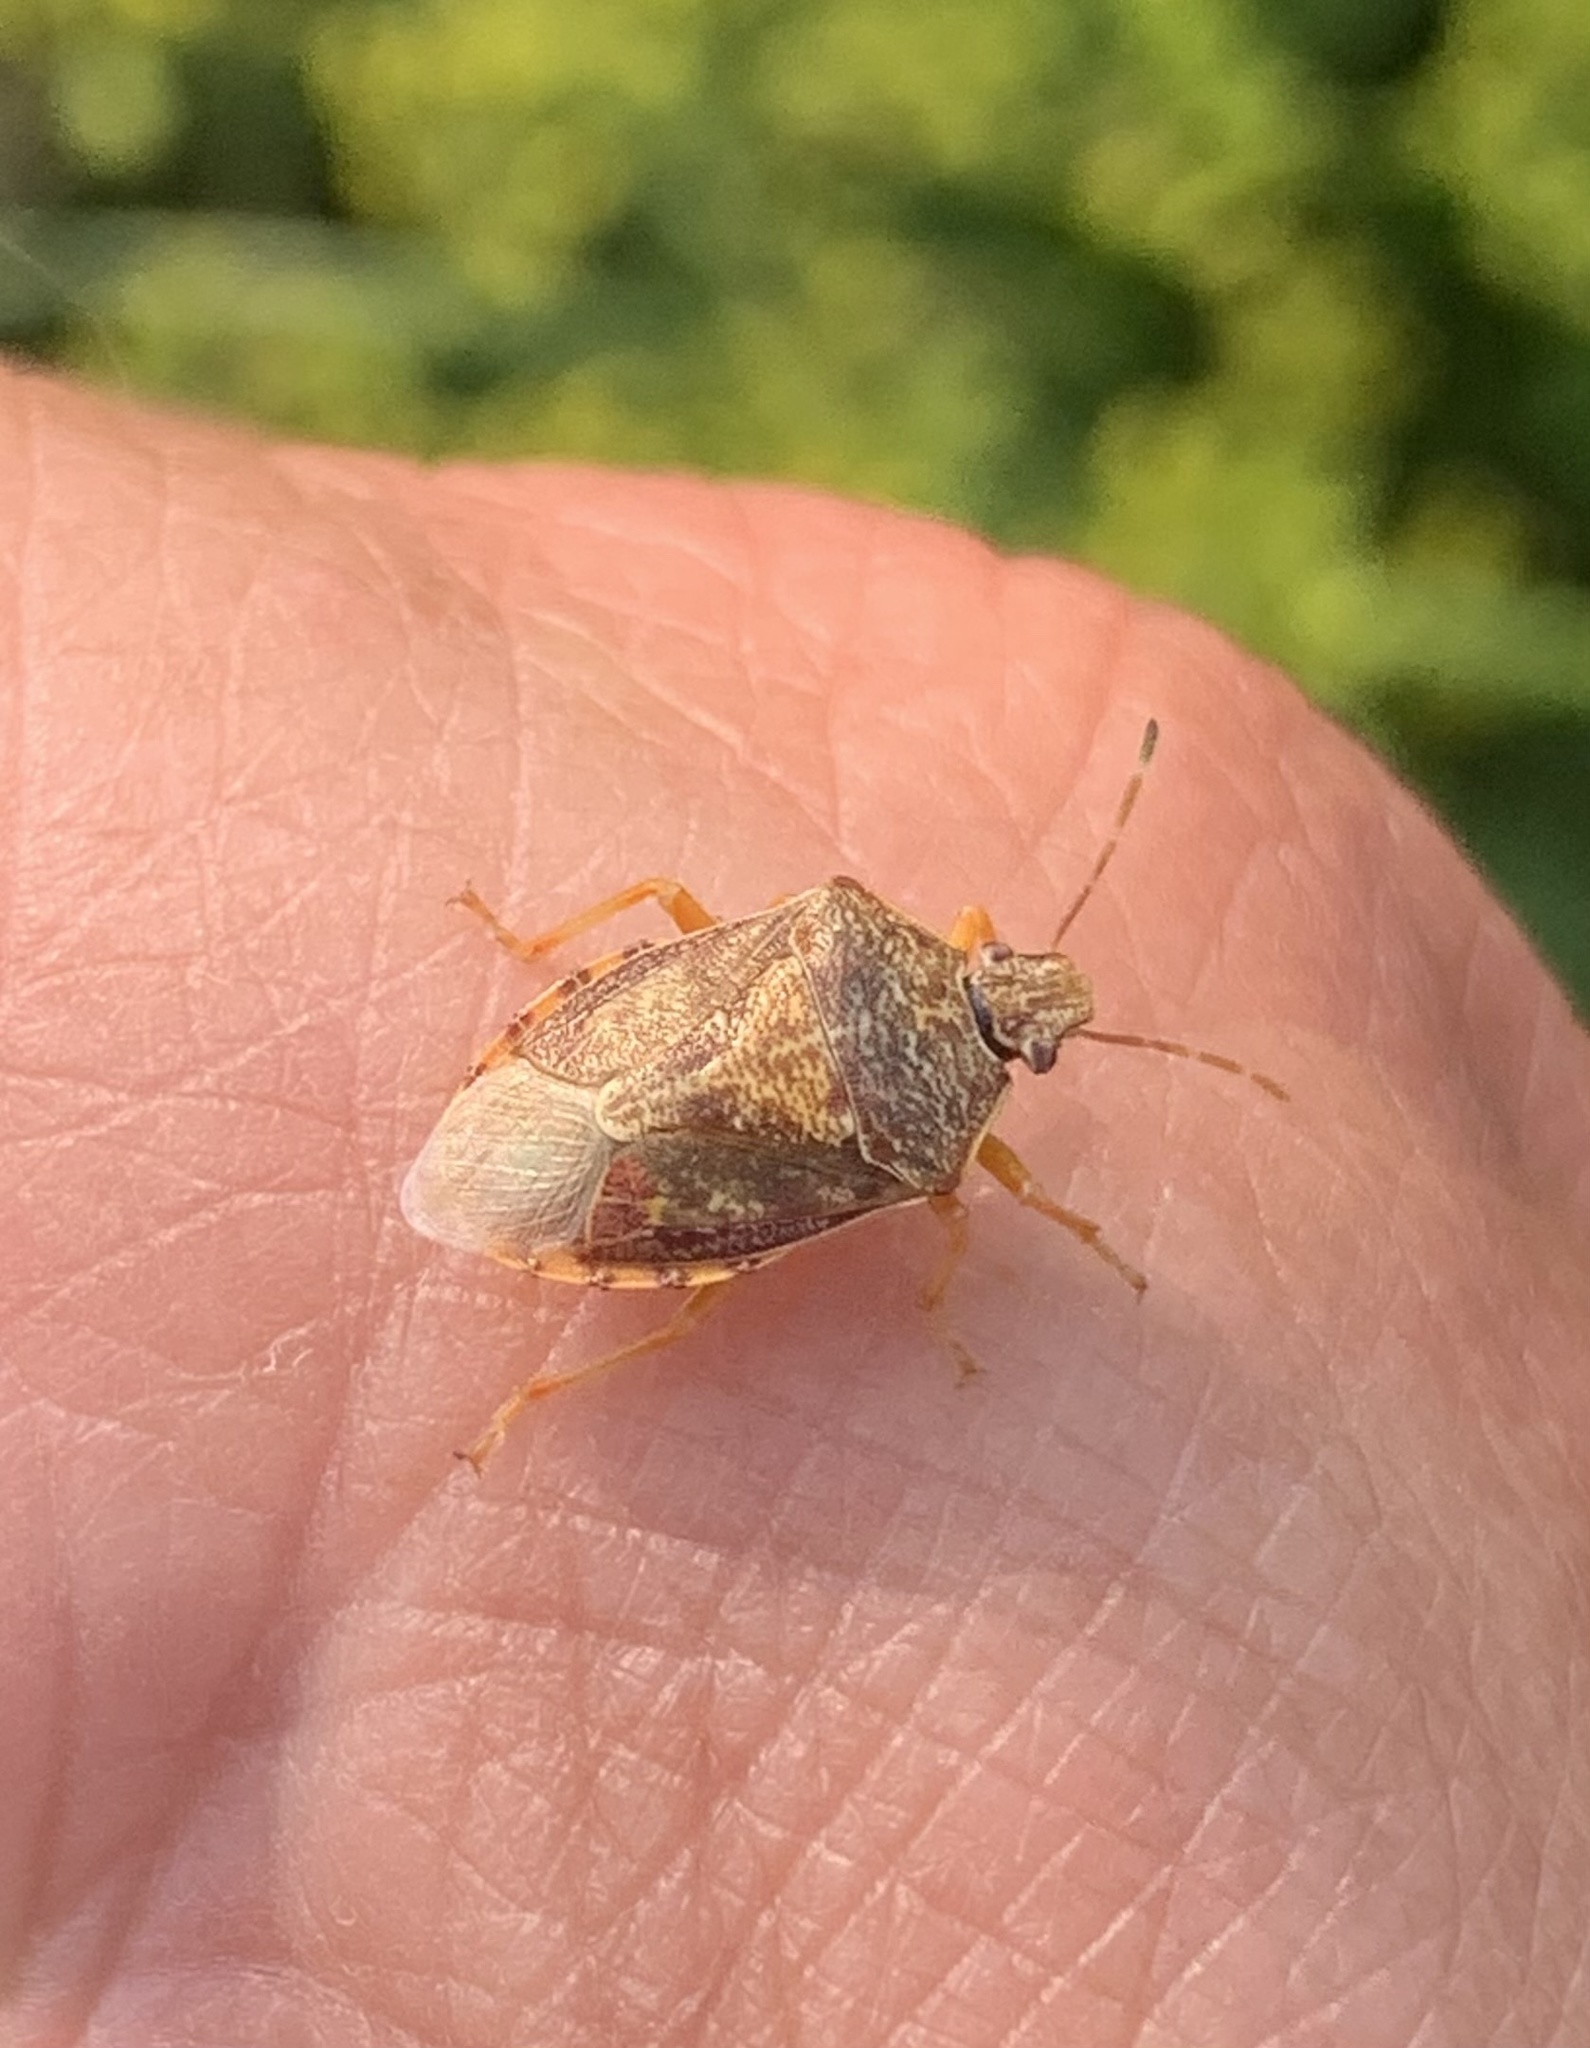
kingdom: Animalia
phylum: Arthropoda
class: Insecta
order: Hemiptera
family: Pentatomidae
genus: Podisus
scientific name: Podisus placidus
